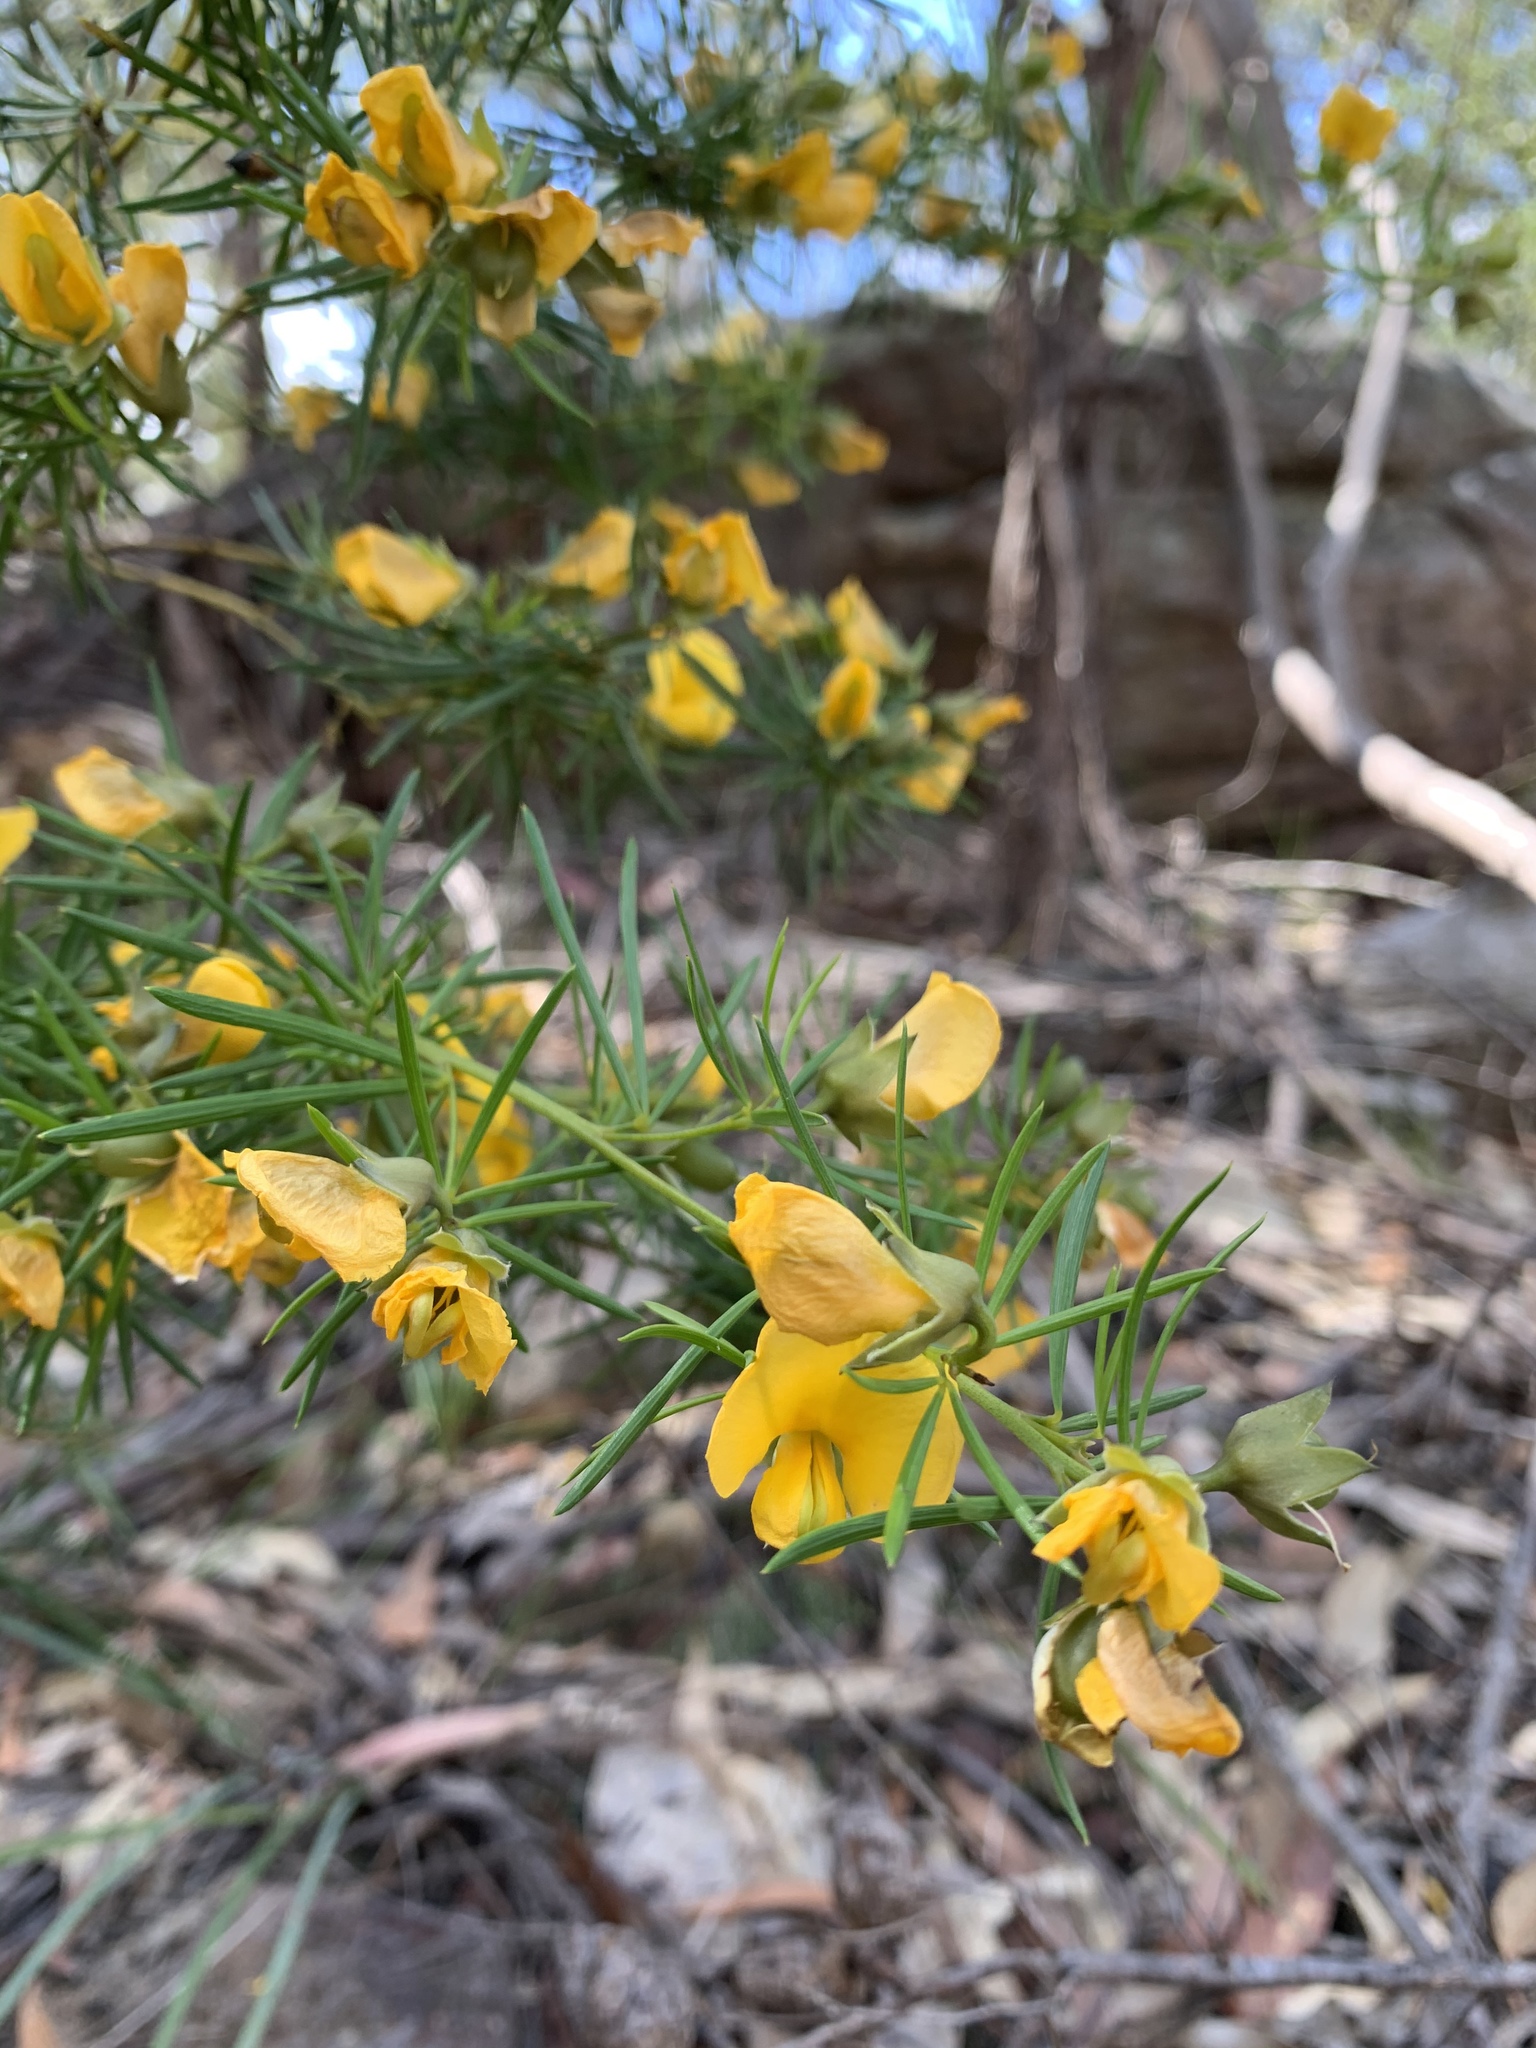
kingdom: Plantae
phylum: Tracheophyta
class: Magnoliopsida
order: Fabales
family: Fabaceae
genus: Gompholobium
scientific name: Gompholobium grandiflorum
